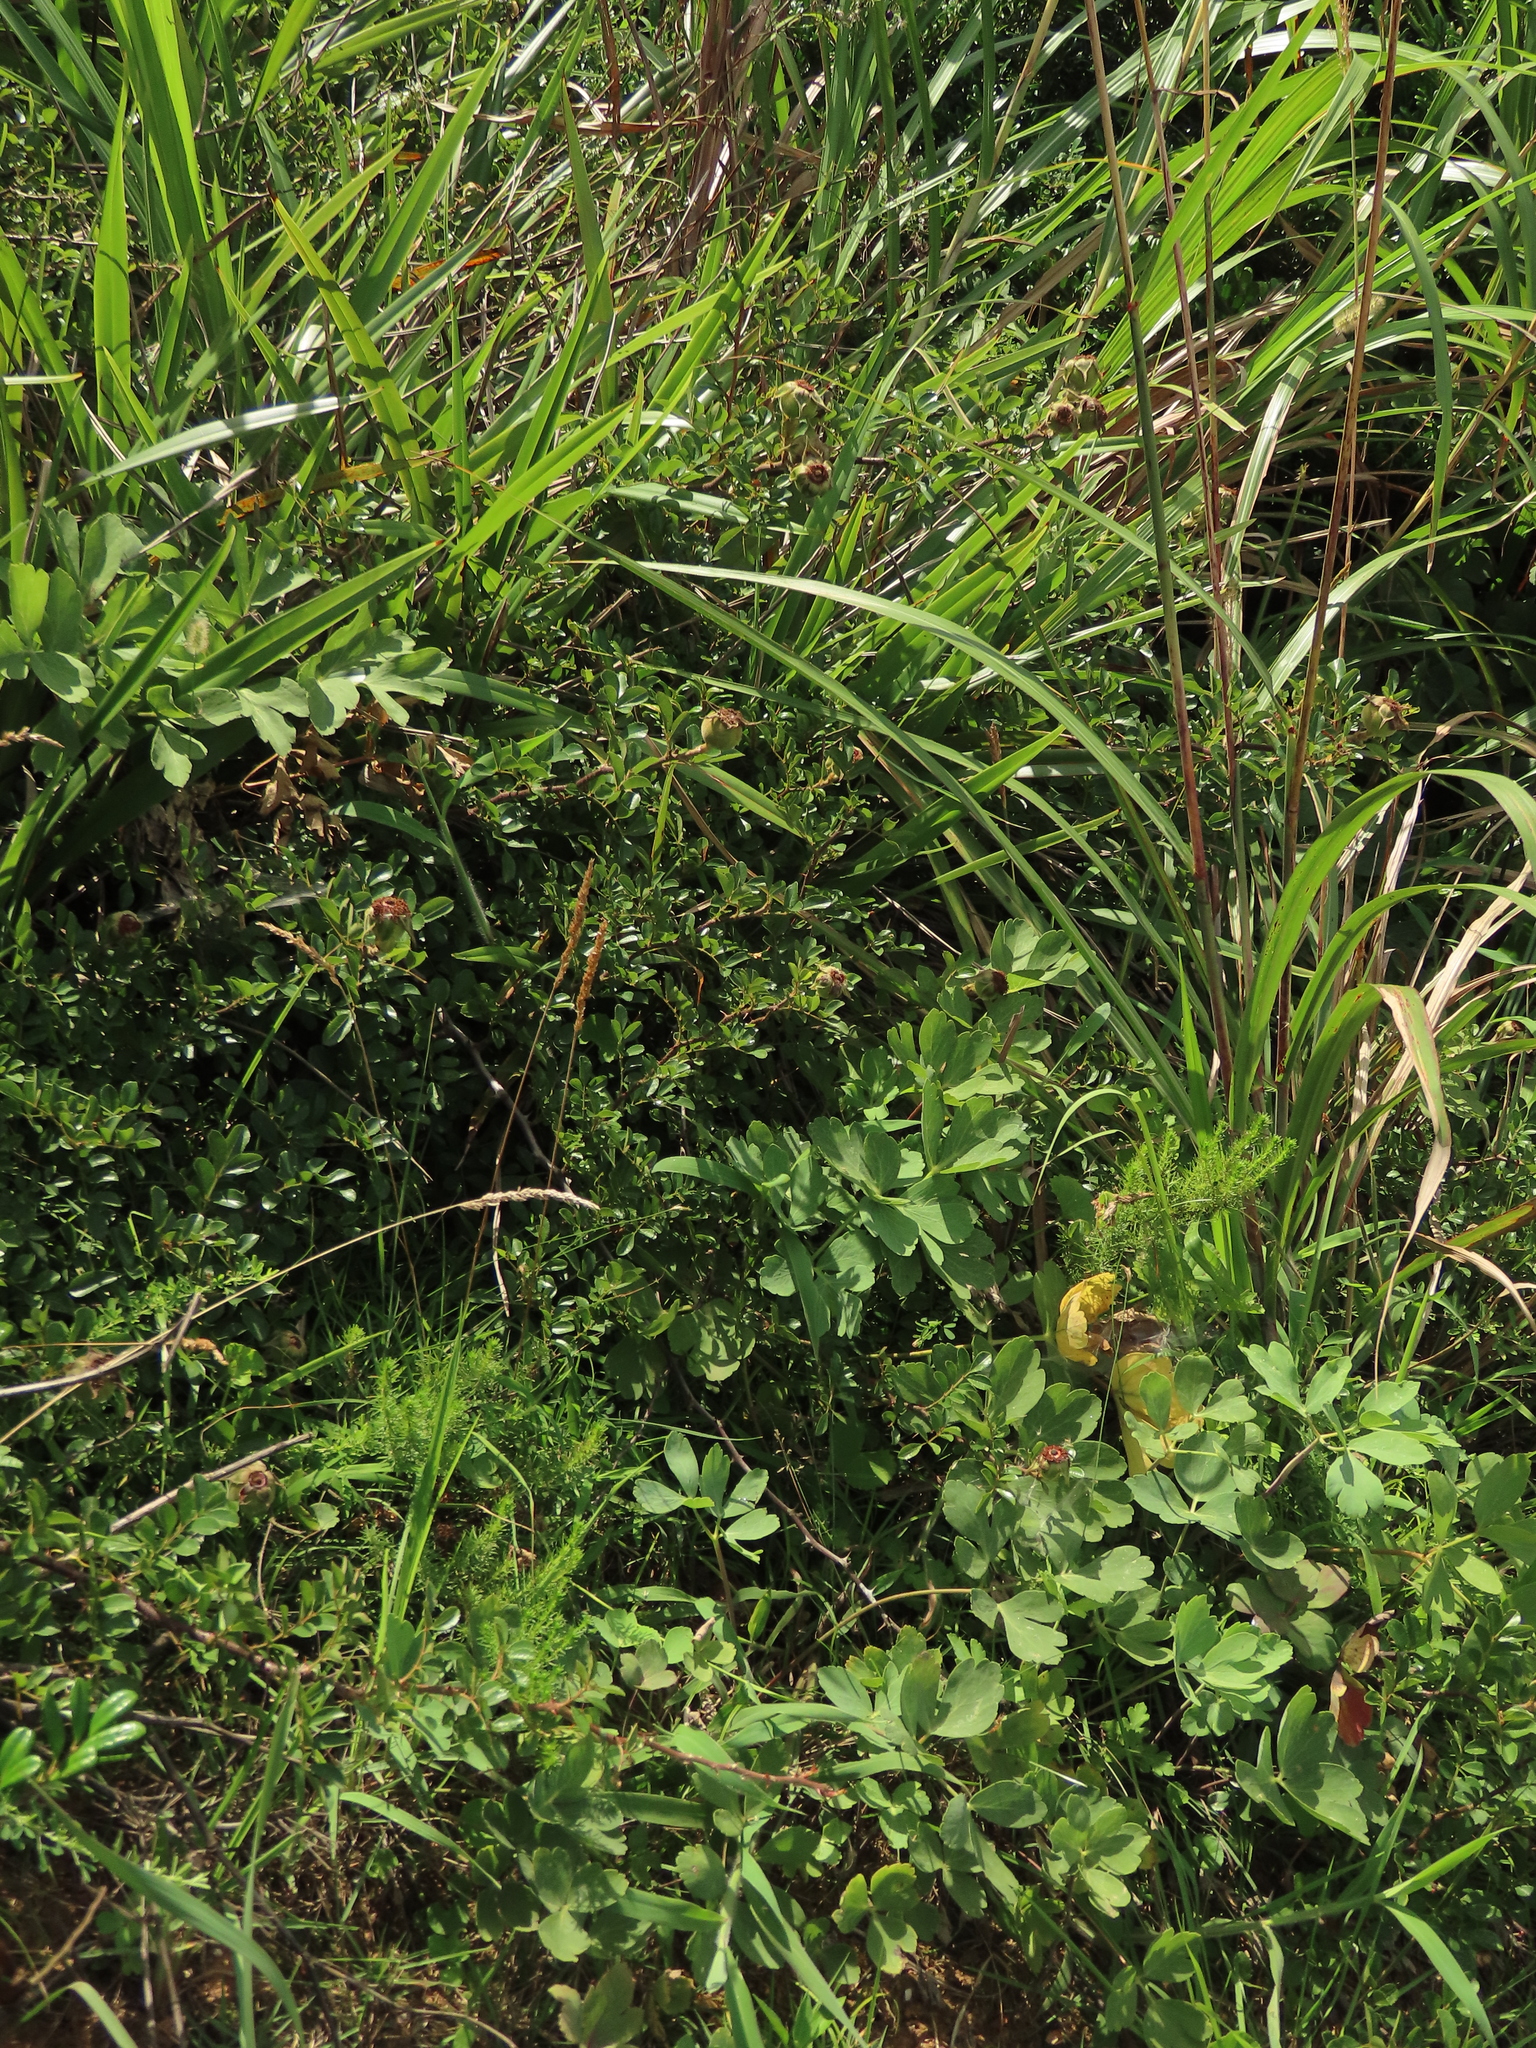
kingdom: Plantae
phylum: Tracheophyta
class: Magnoliopsida
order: Rosales
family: Rosaceae
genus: Rosa
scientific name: Rosa bracteata
